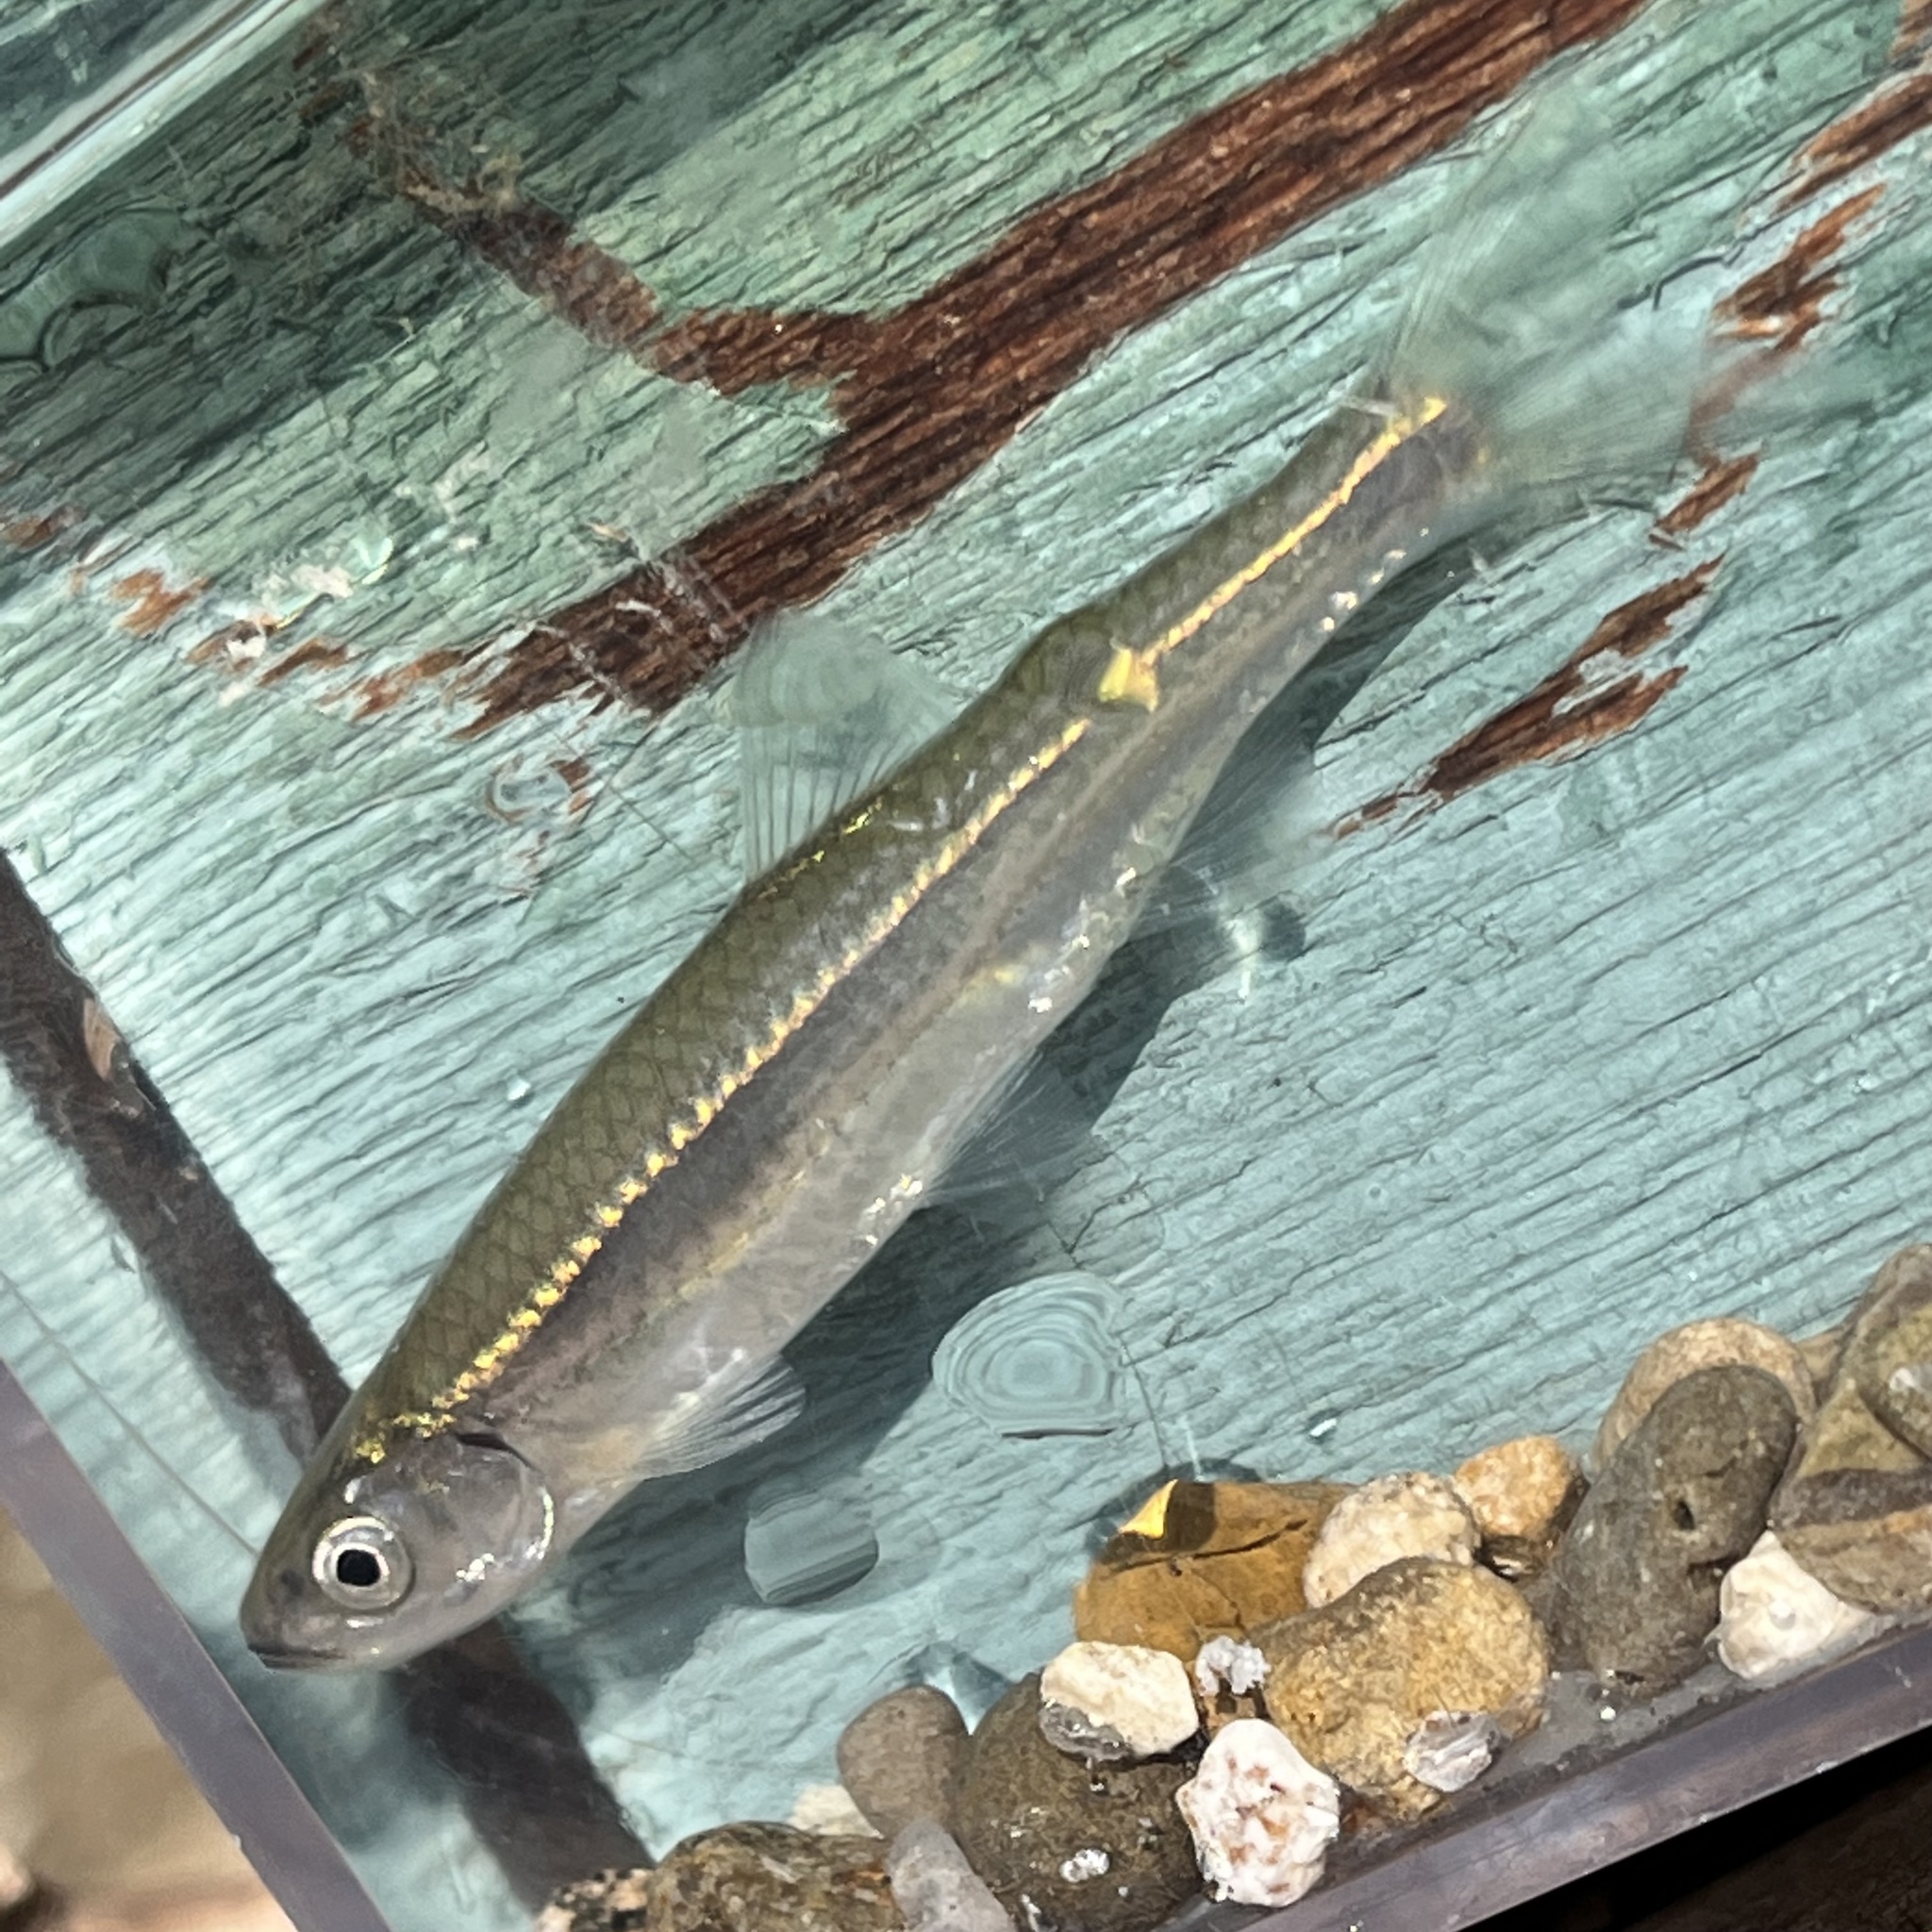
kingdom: Animalia
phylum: Chordata
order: Cypriniformes
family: Cyprinidae
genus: Notropis
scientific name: Notropis atherinoides
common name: Emerald shiner
